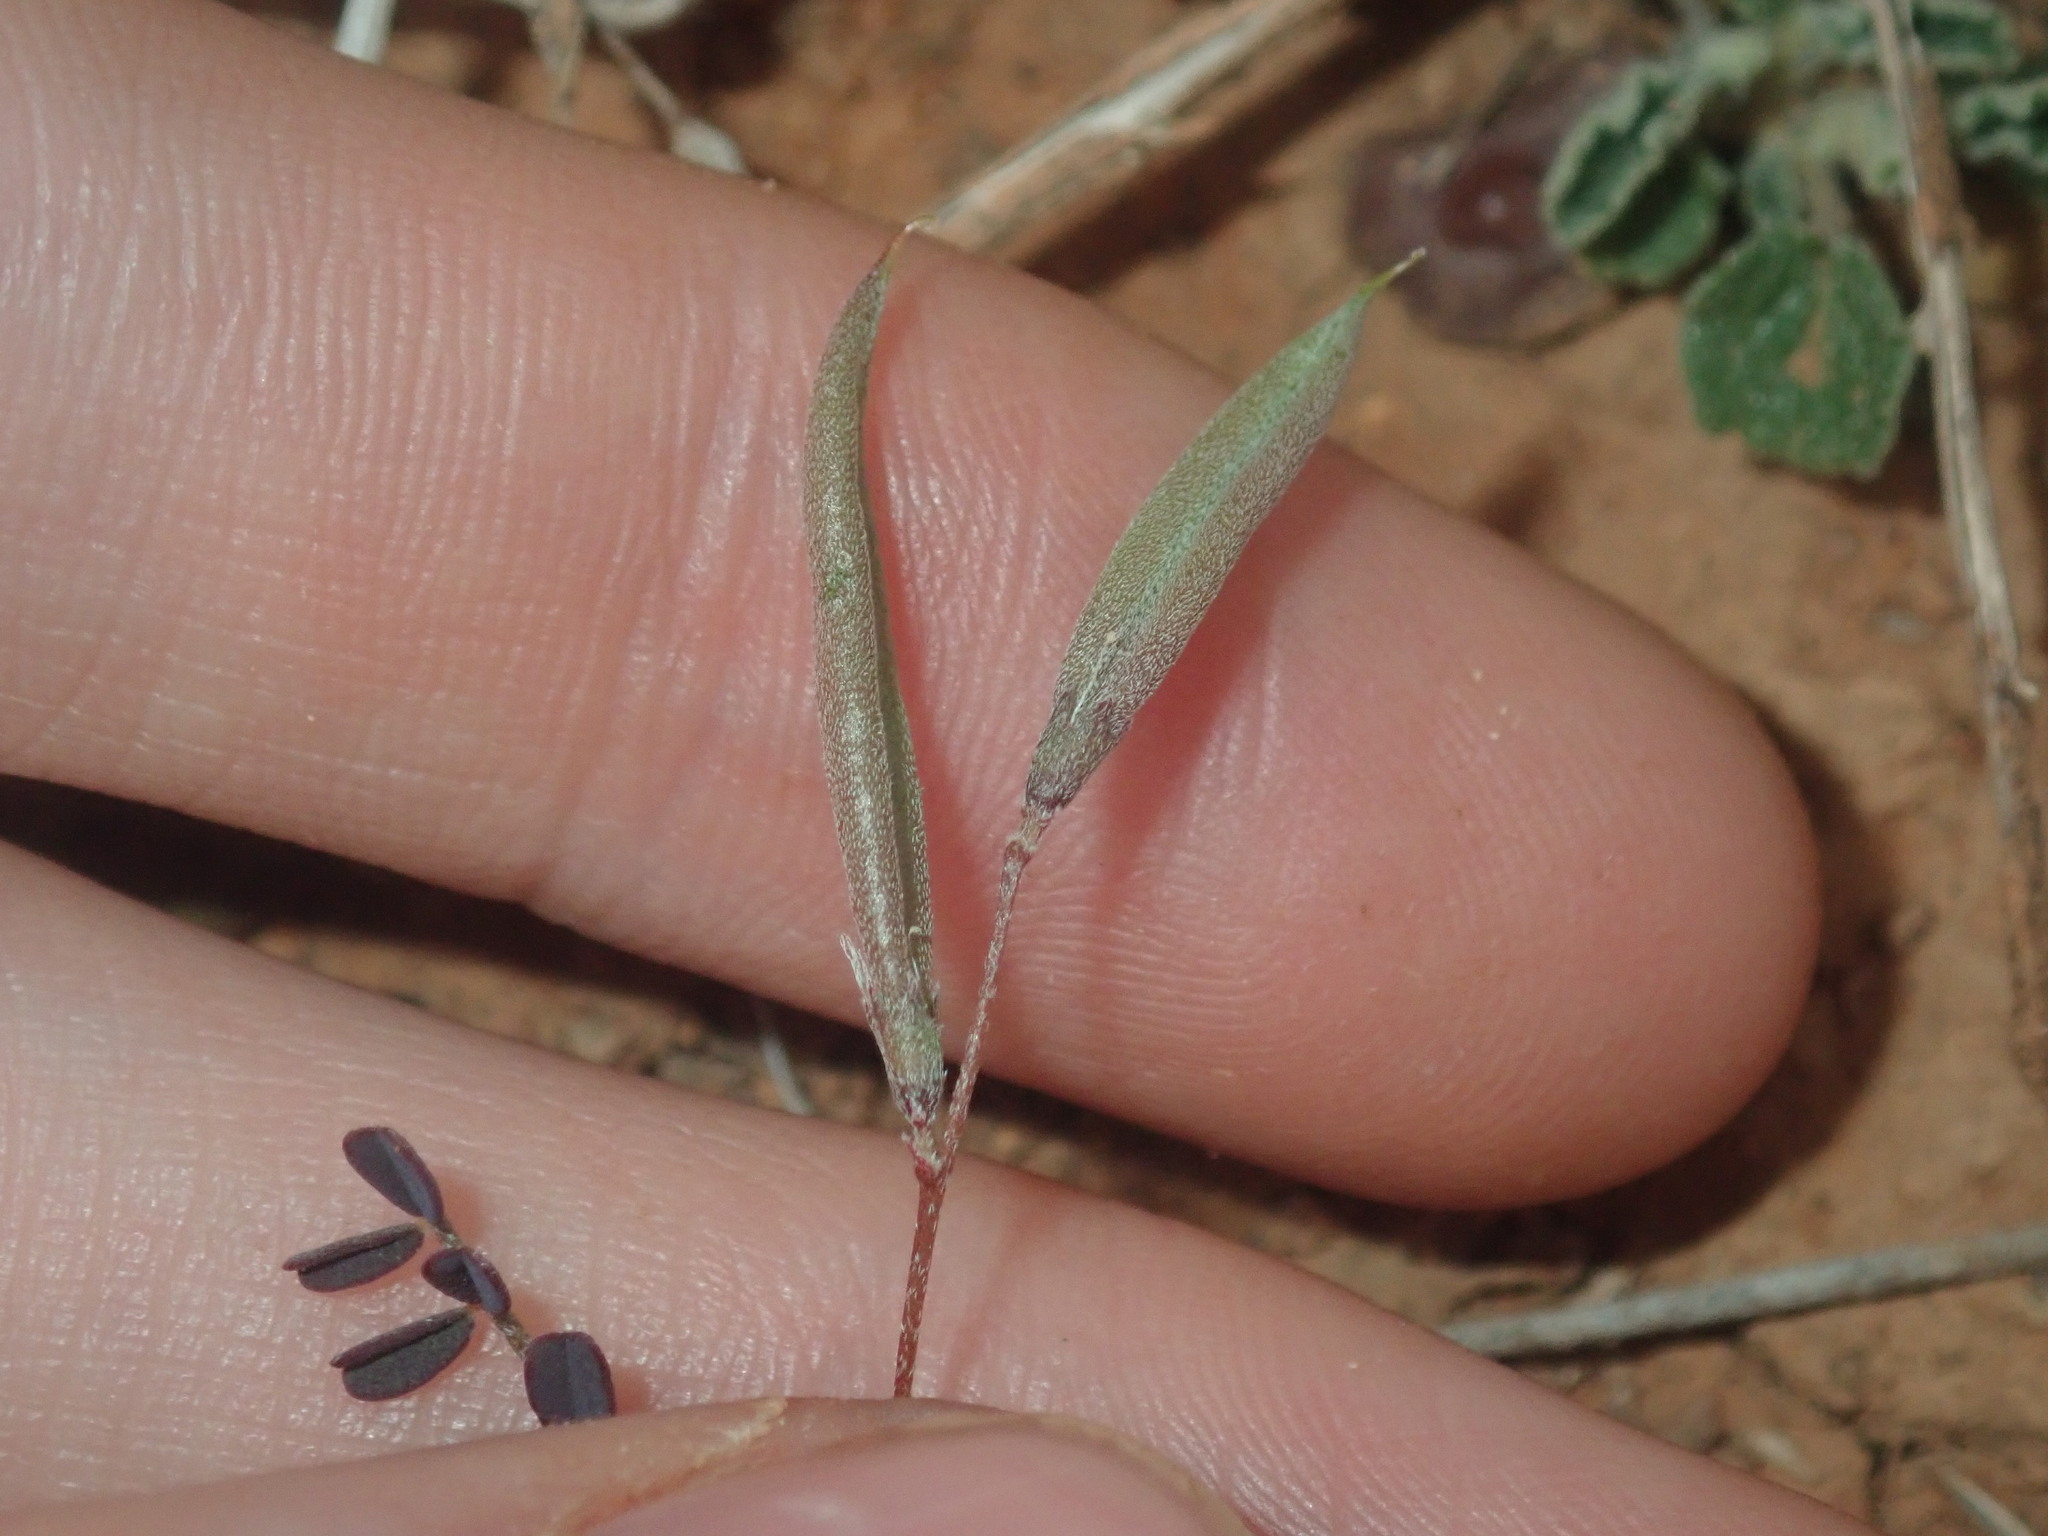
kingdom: Plantae
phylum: Tracheophyta
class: Magnoliopsida
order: Fabales
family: Fabaceae
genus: Swainsona
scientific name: Swainsona oliveri
